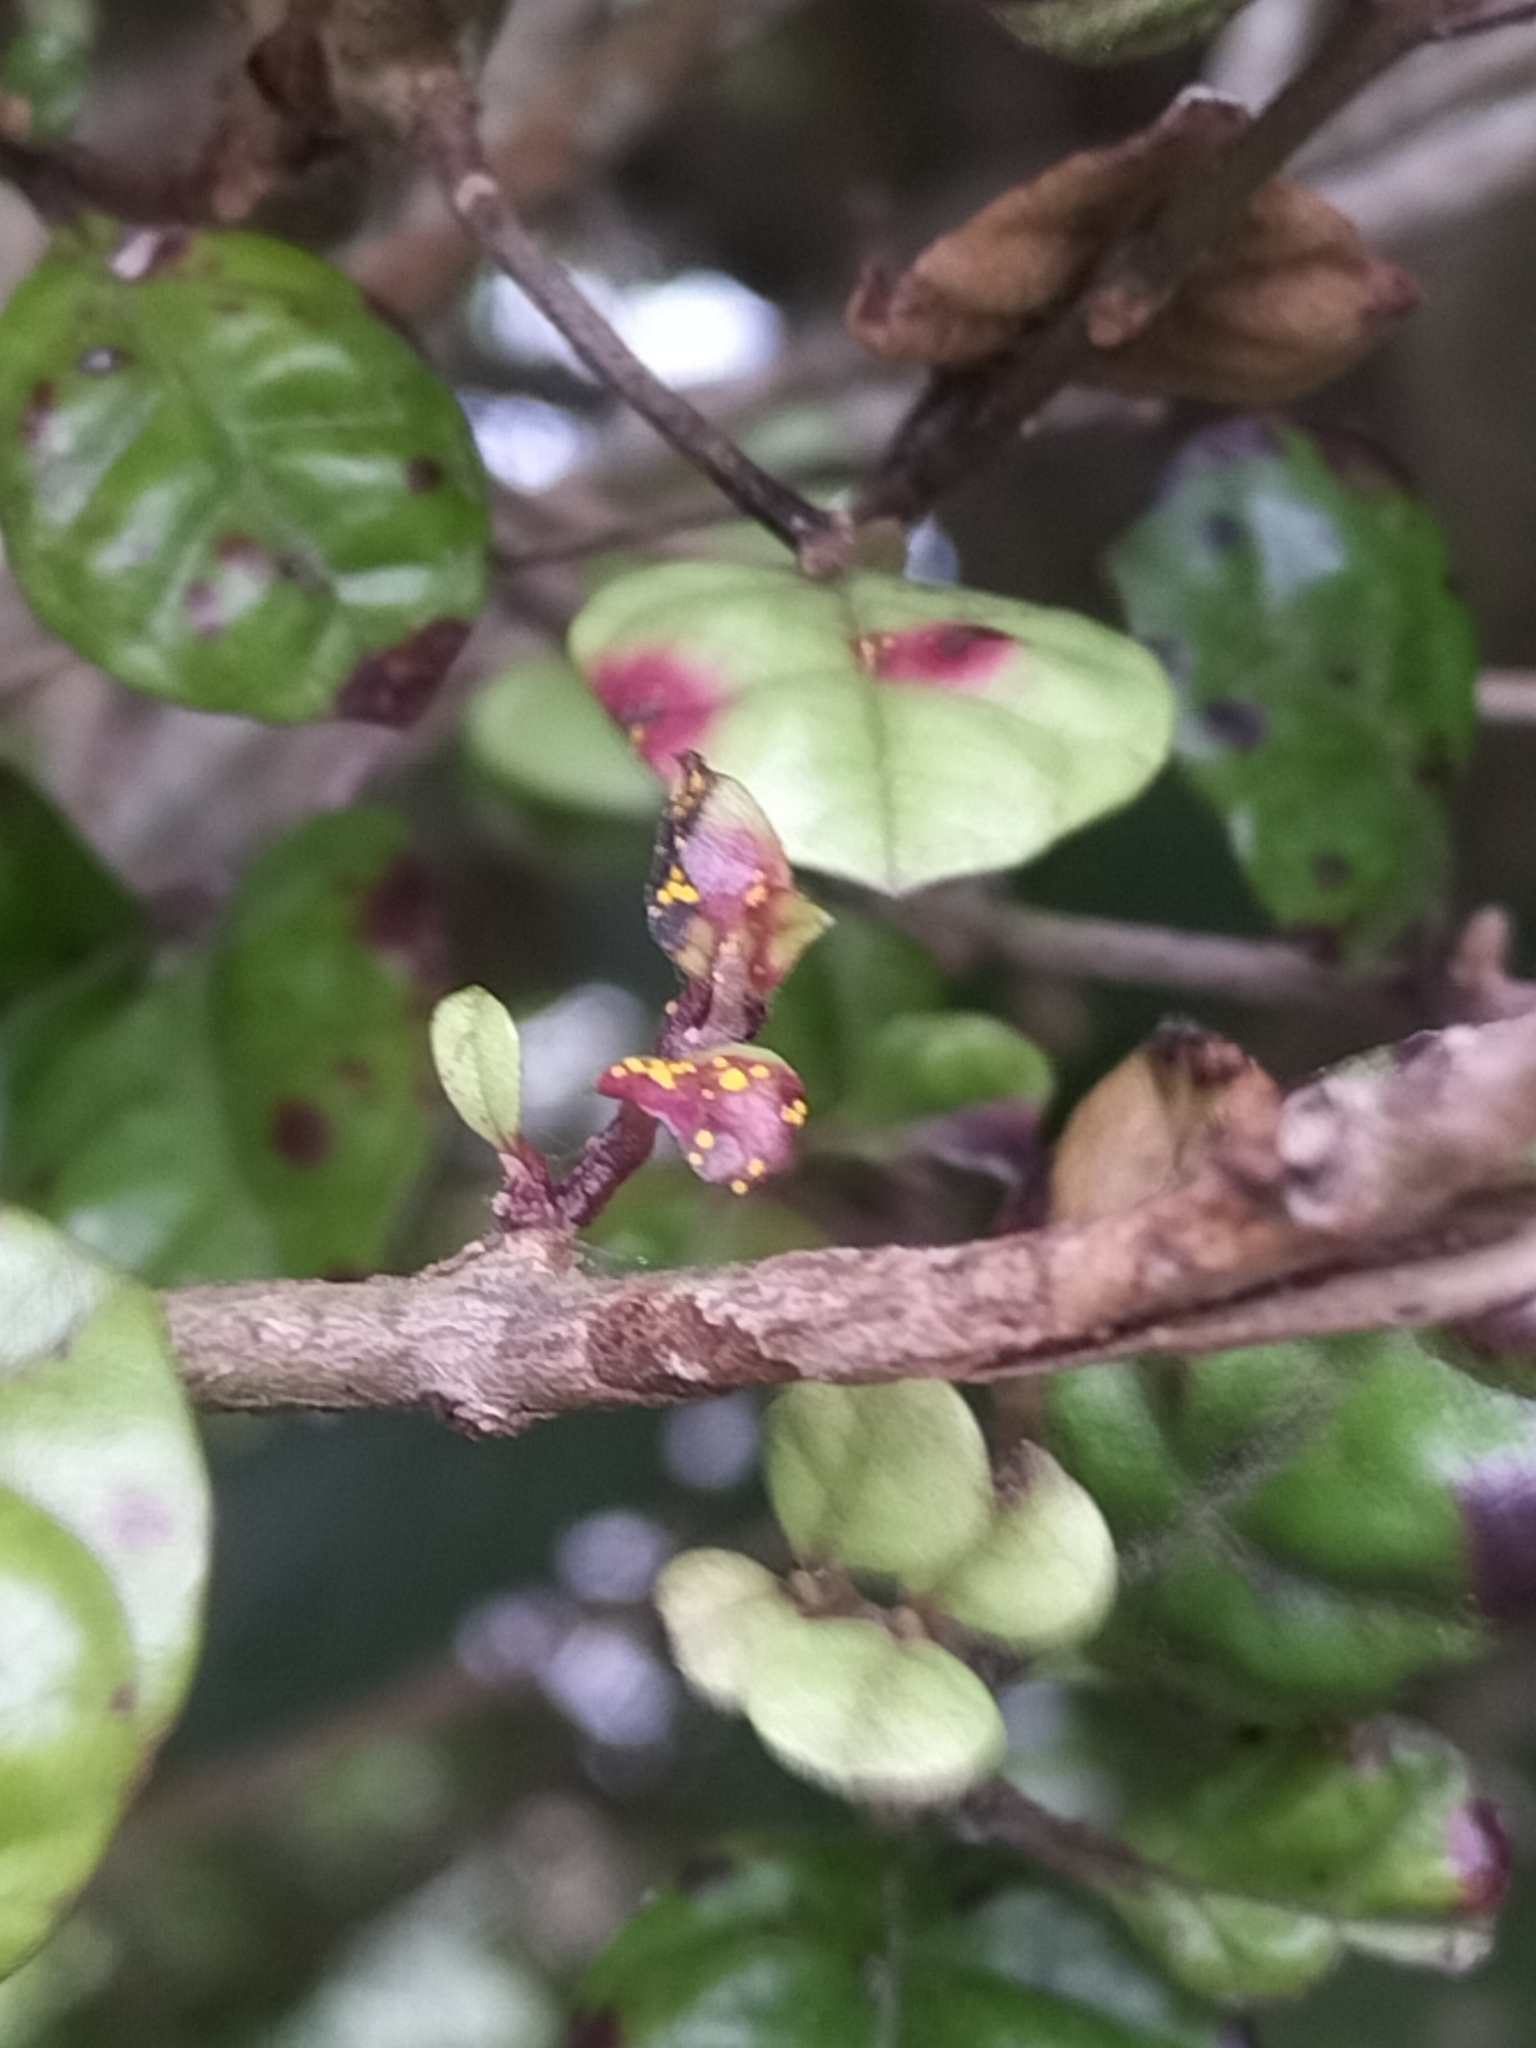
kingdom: Fungi
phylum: Basidiomycota
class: Pucciniomycetes
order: Pucciniales
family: Sphaerophragmiaceae
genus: Austropuccinia
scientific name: Austropuccinia psidii
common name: Myrtle rust
